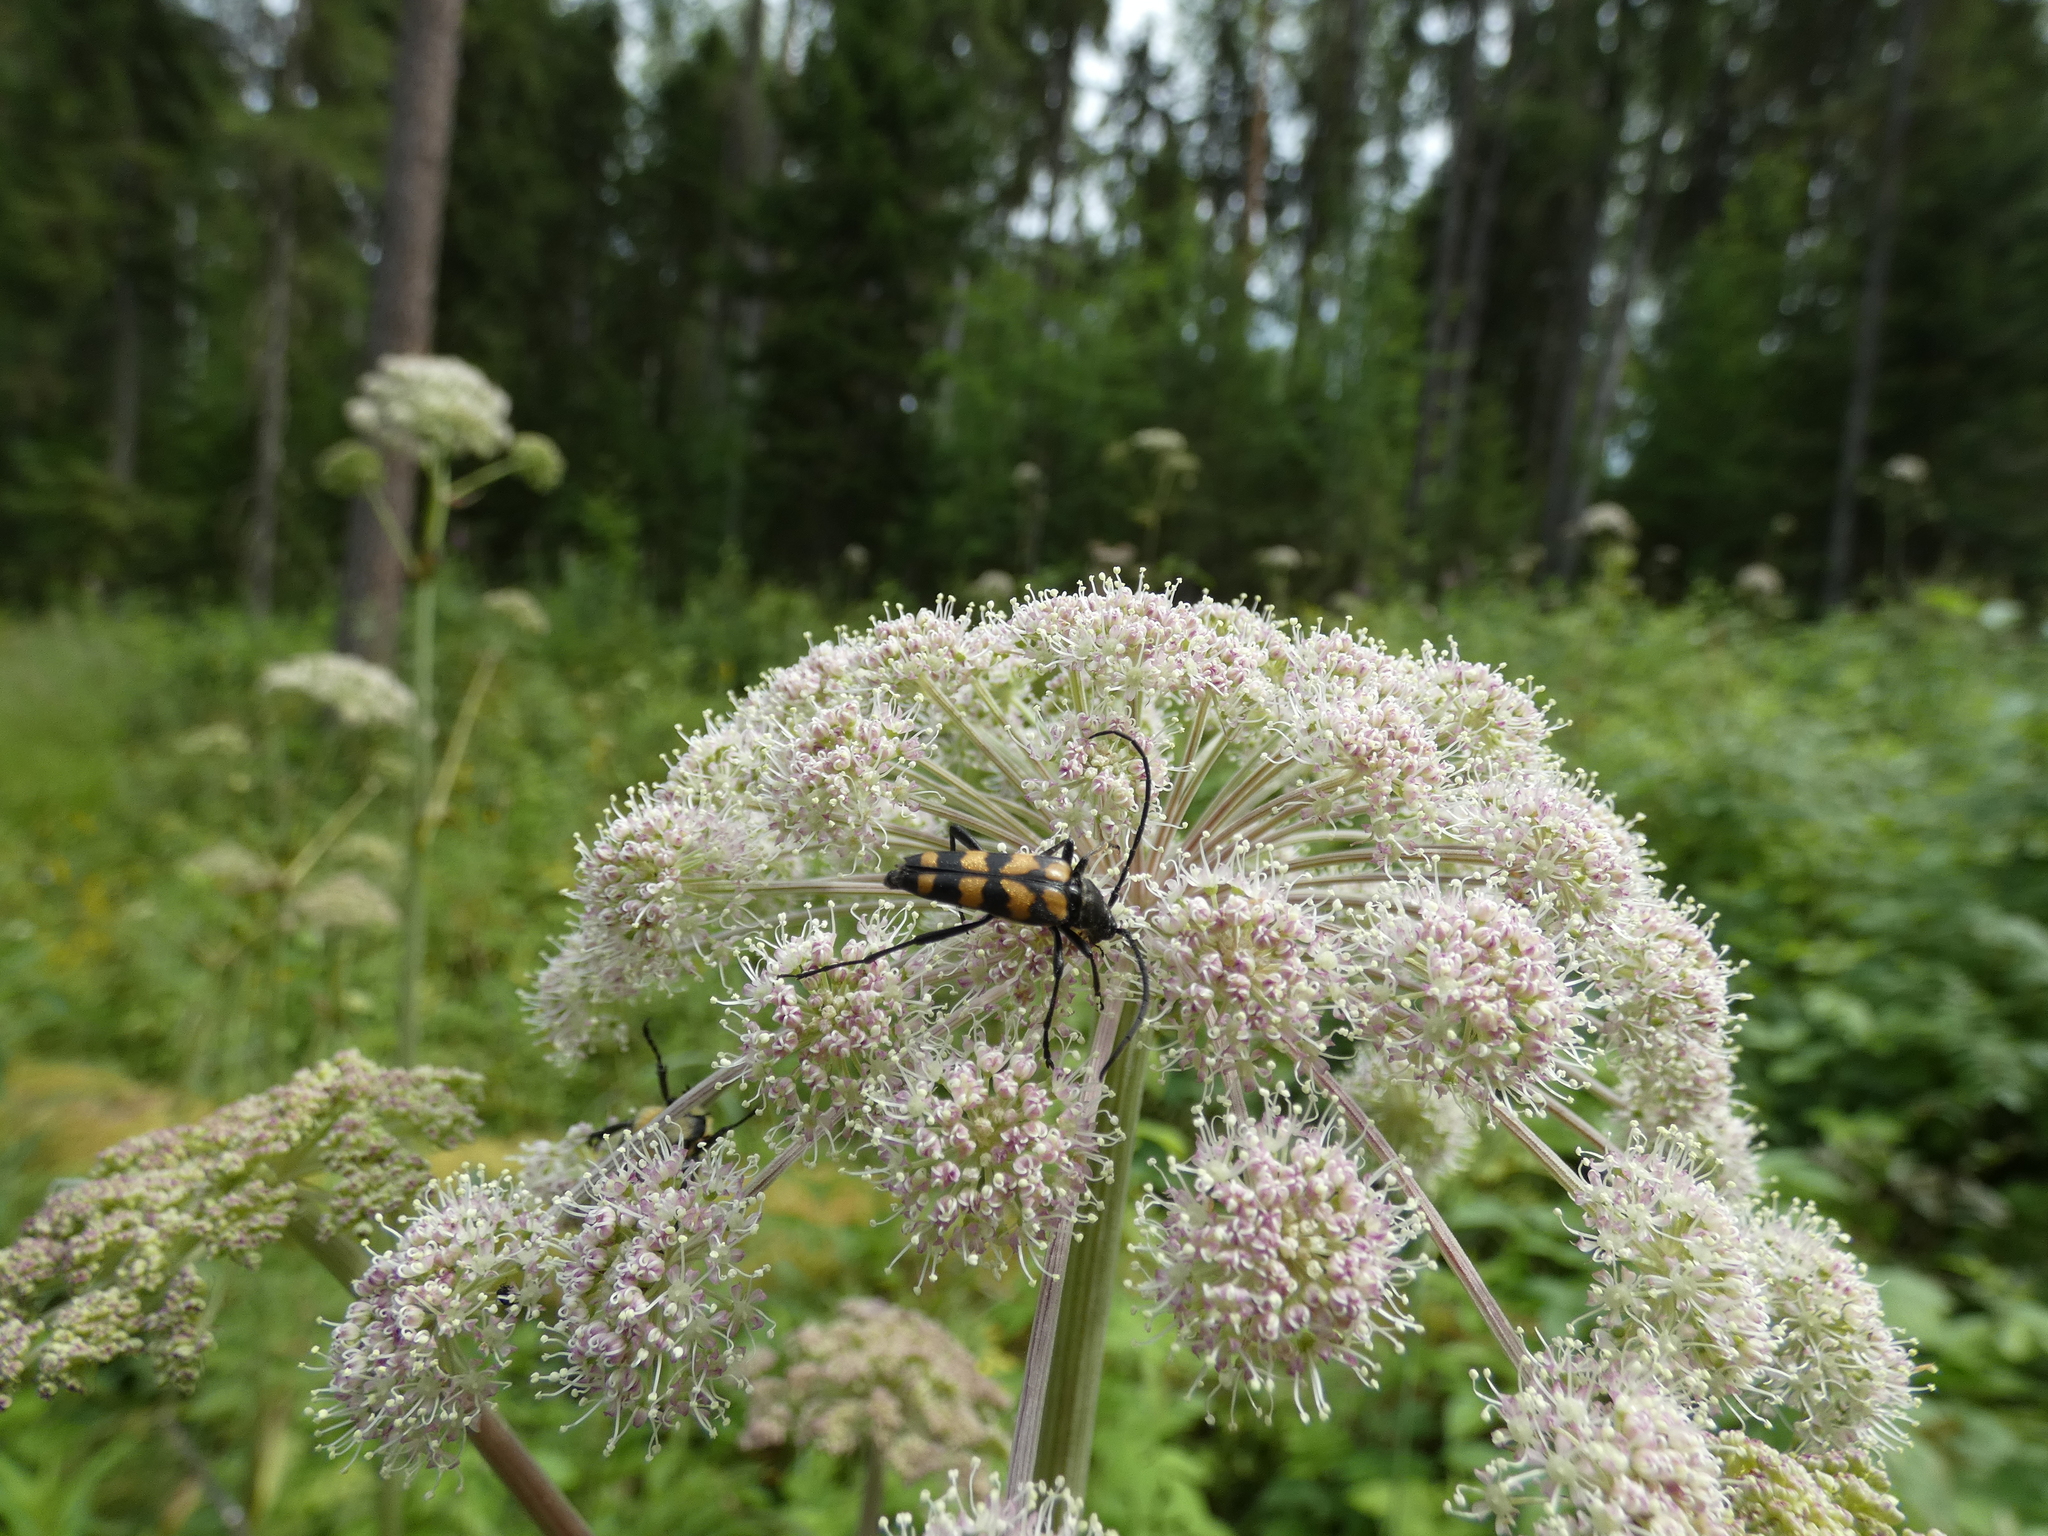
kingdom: Animalia
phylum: Arthropoda
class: Insecta
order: Coleoptera
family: Cerambycidae
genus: Leptura
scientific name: Leptura quadrifasciata
